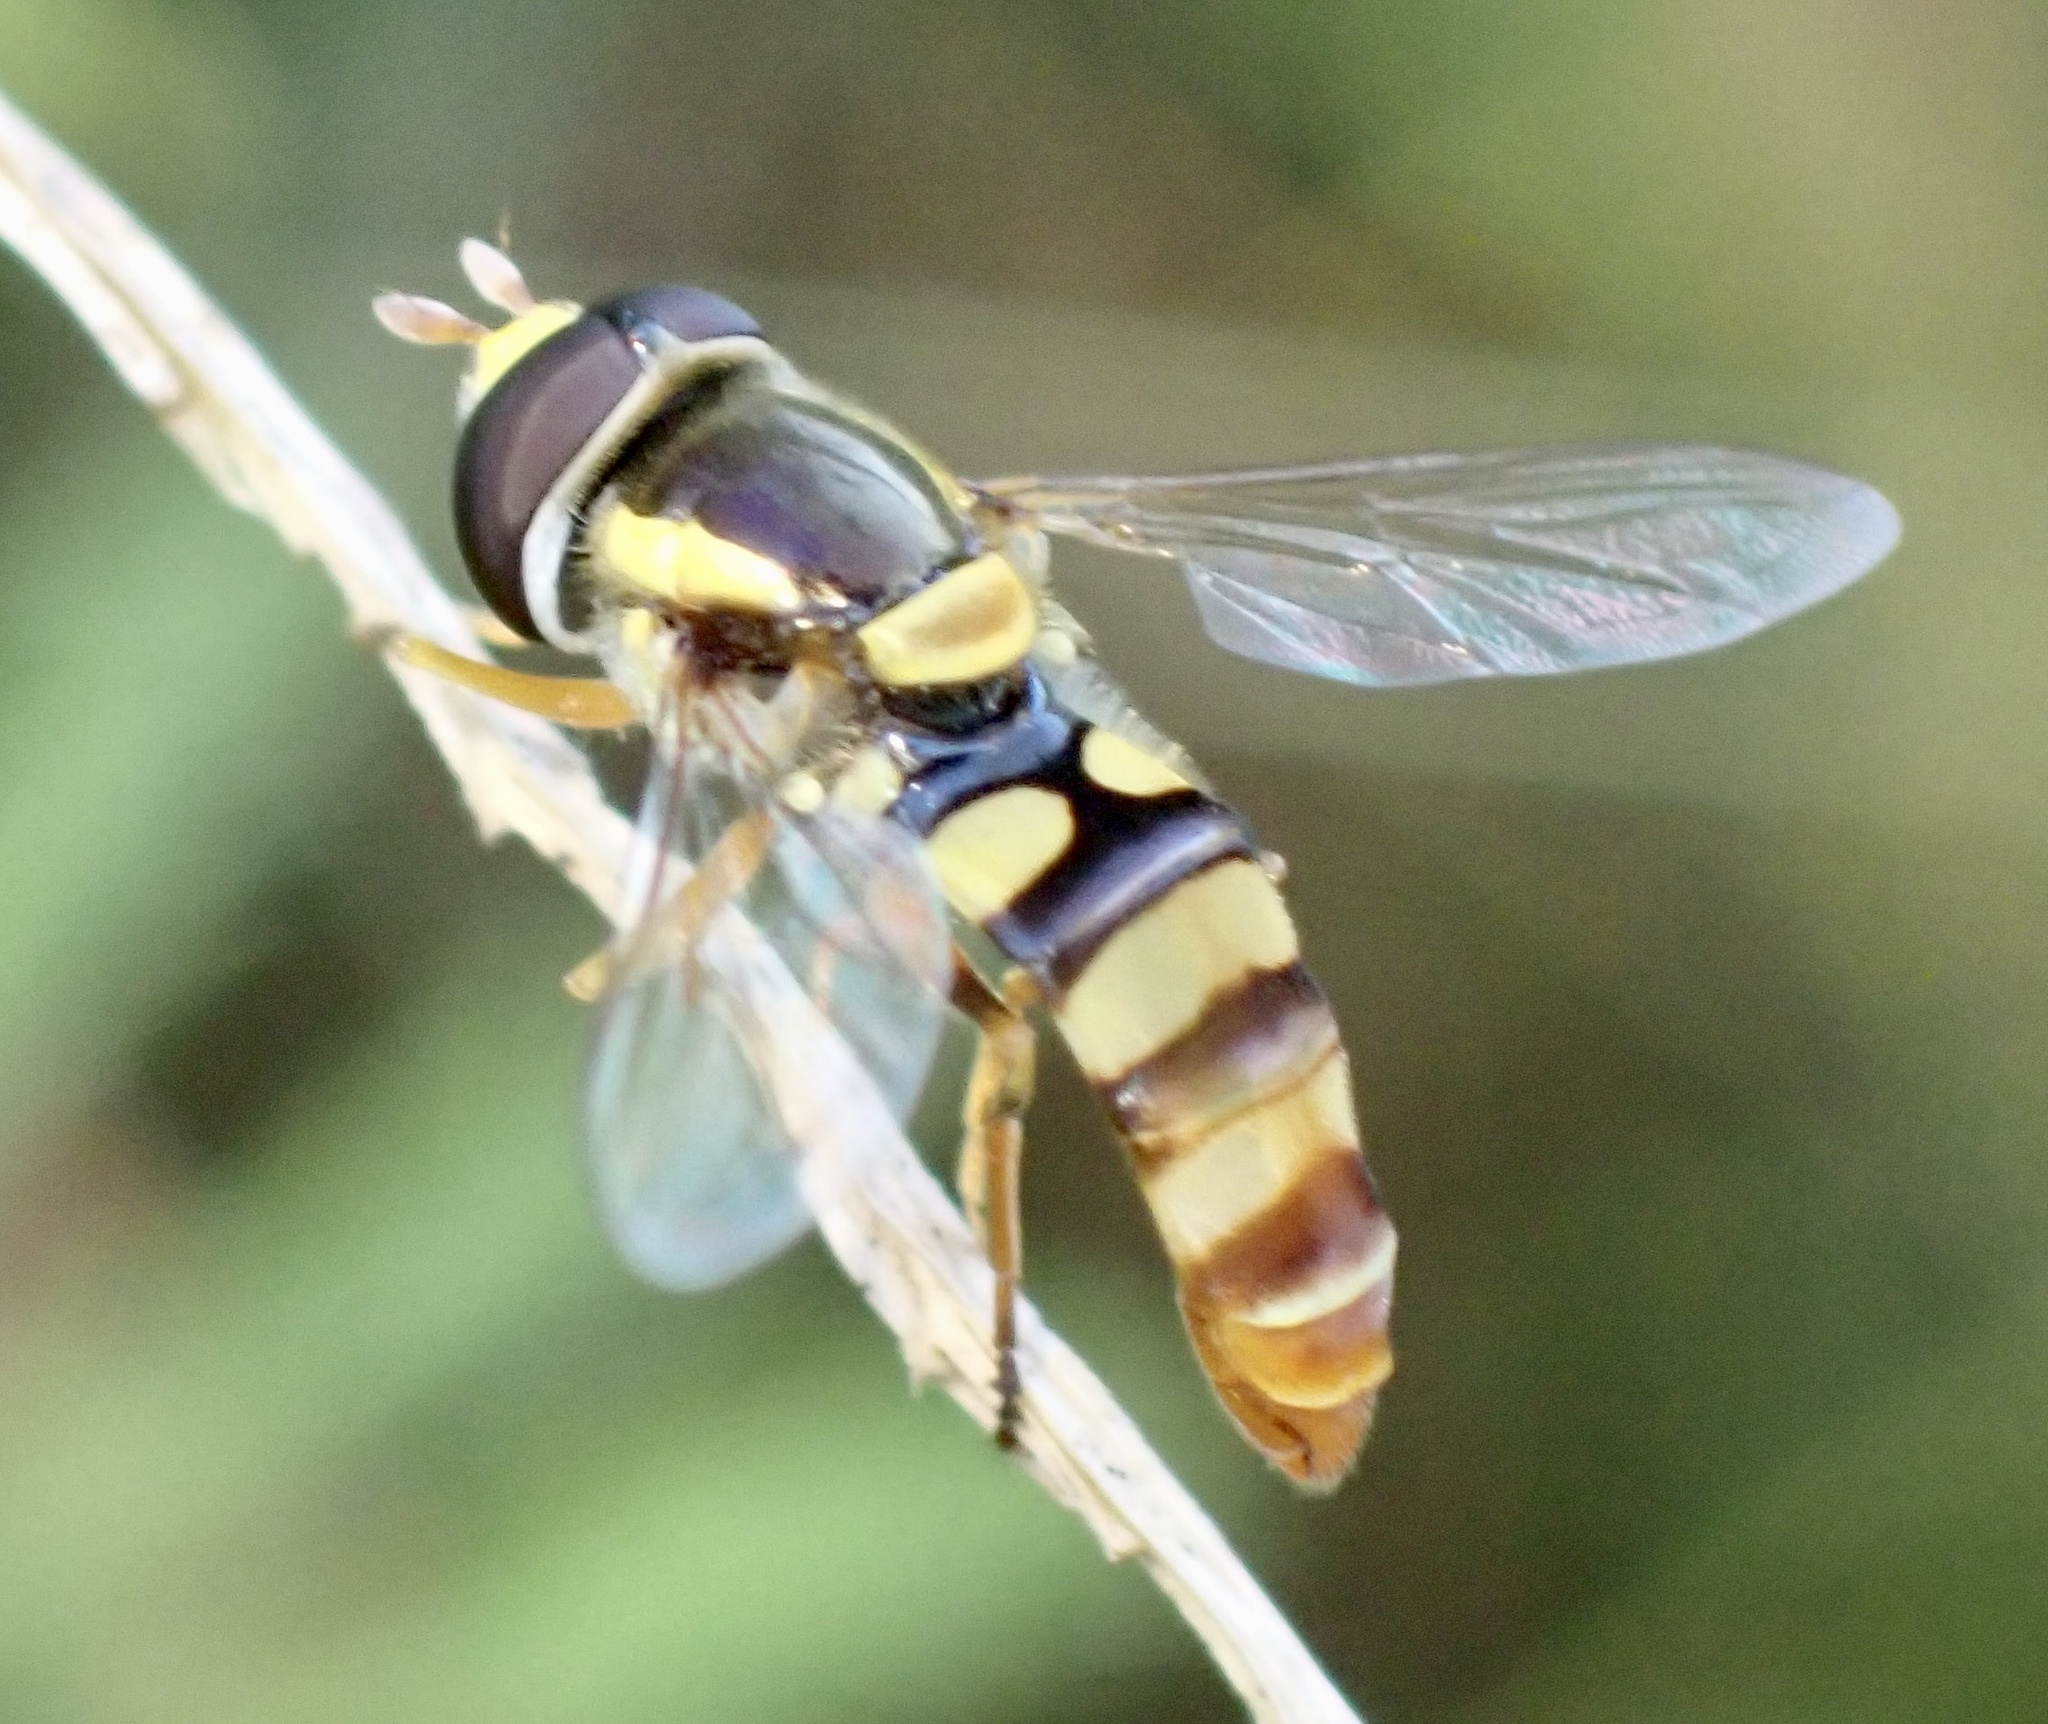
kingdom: Animalia
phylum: Arthropoda
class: Insecta
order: Diptera
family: Syrphidae
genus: Ischiodon
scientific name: Ischiodon scutellaris
